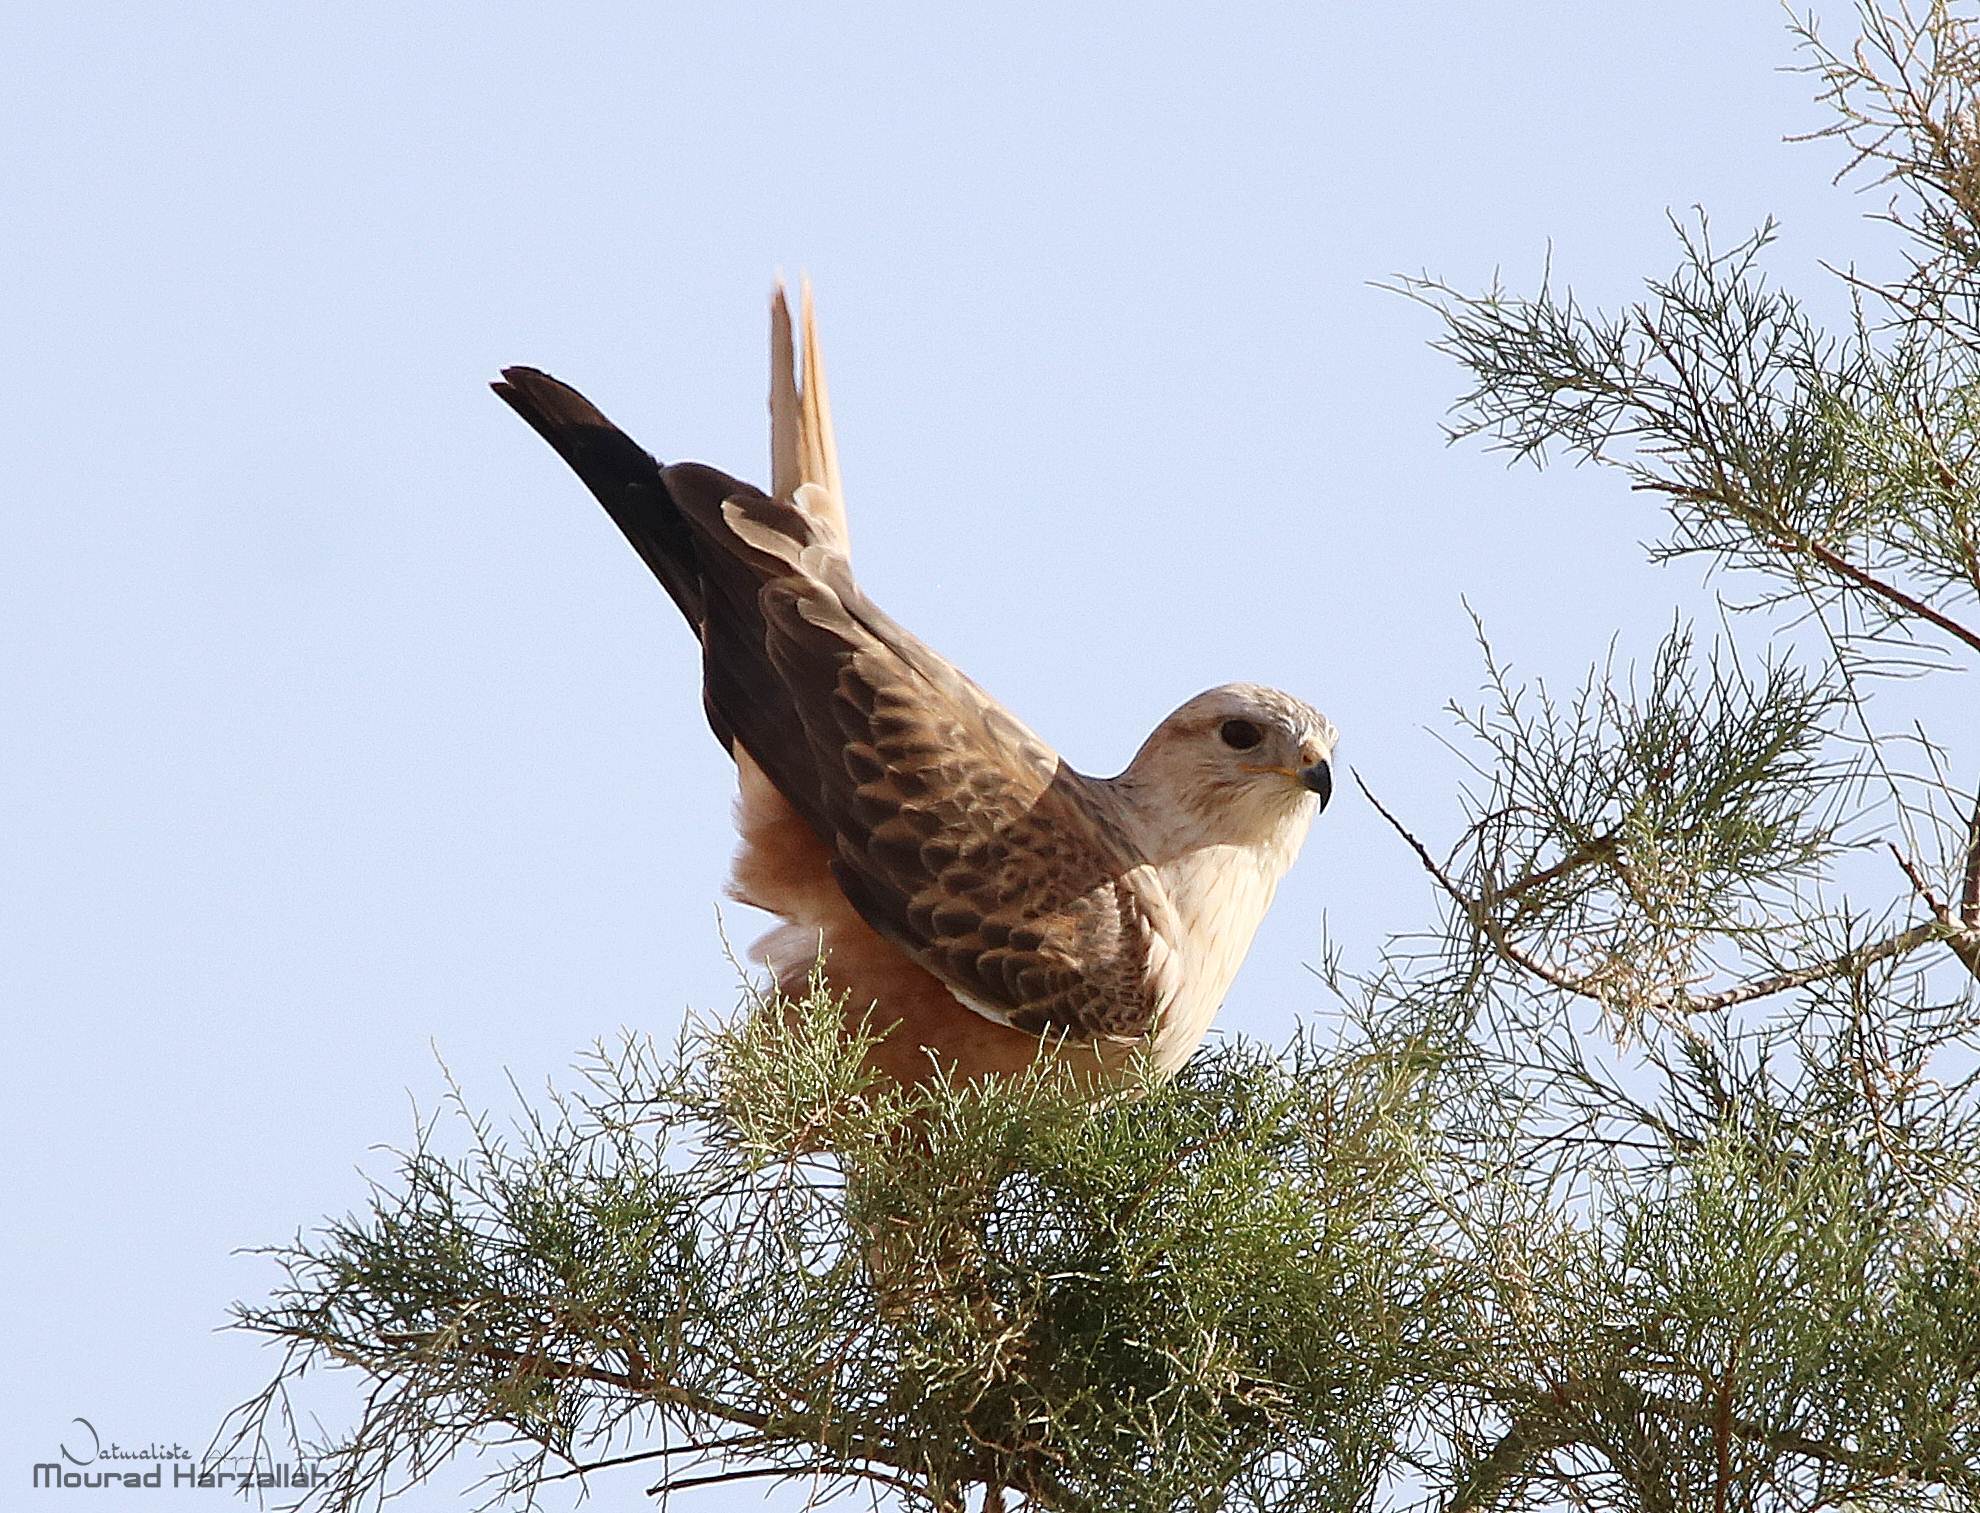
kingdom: Animalia
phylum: Chordata
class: Aves
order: Accipitriformes
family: Accipitridae
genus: Buteo
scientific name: Buteo rufinus
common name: Long-legged buzzard
